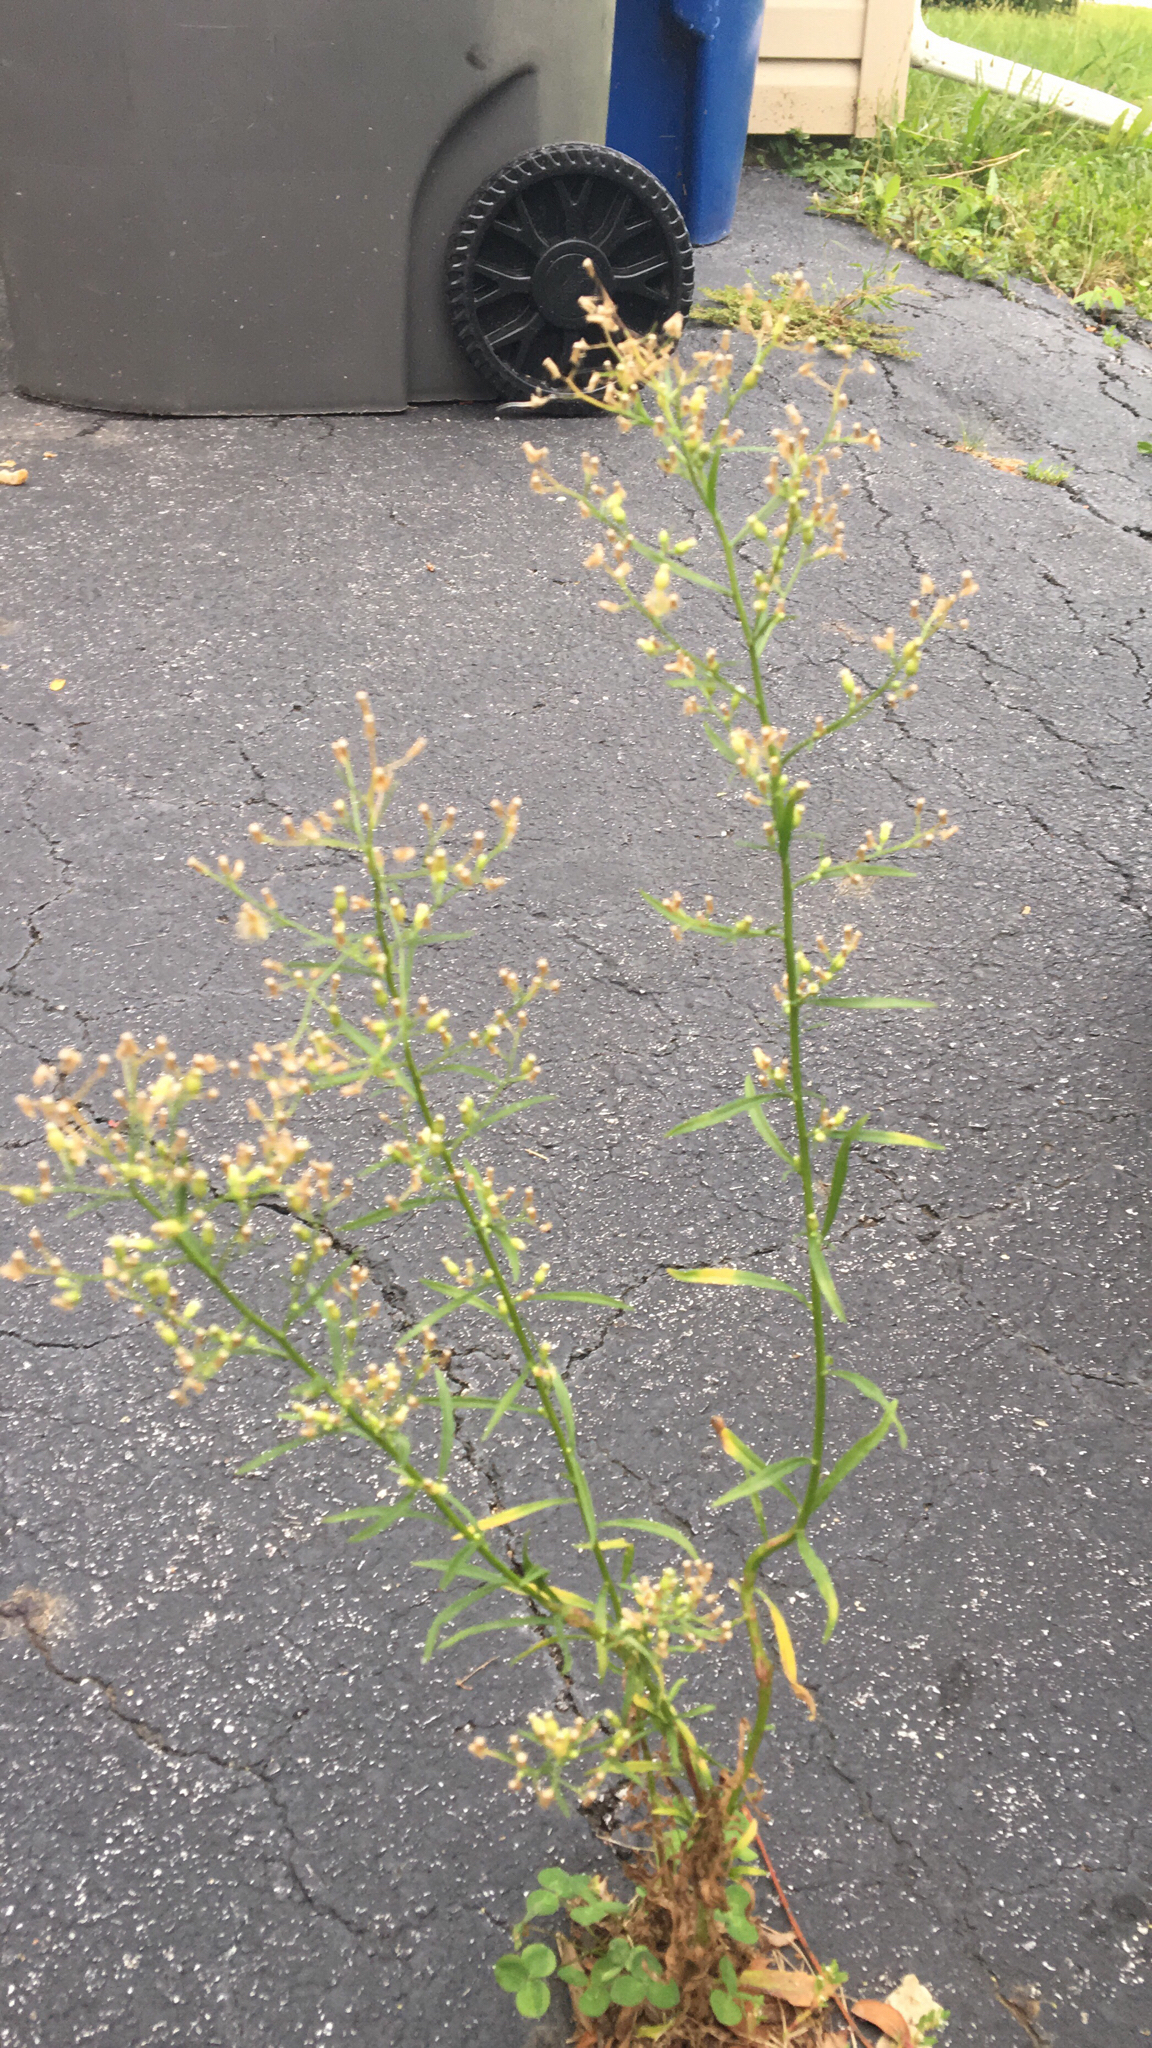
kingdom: Plantae
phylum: Tracheophyta
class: Magnoliopsida
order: Asterales
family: Asteraceae
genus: Erigeron
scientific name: Erigeron canadensis
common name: Canadian fleabane
